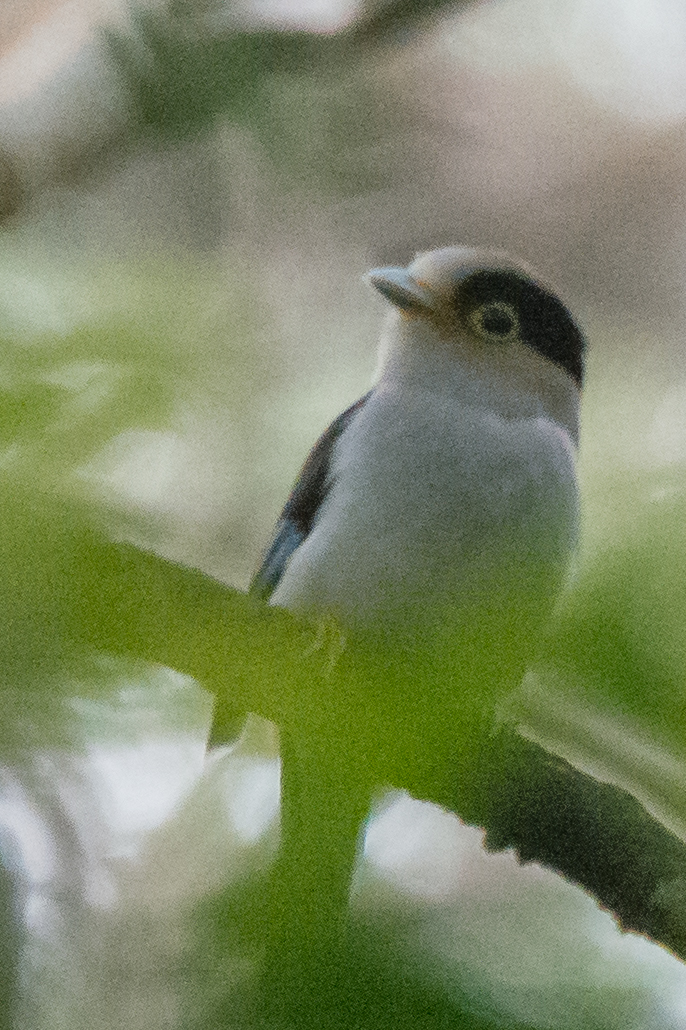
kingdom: Animalia
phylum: Chordata
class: Aves
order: Passeriformes
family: Eurylaimidae
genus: Serilophus
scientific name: Serilophus lunatus
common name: Silver-breasted broadbill
